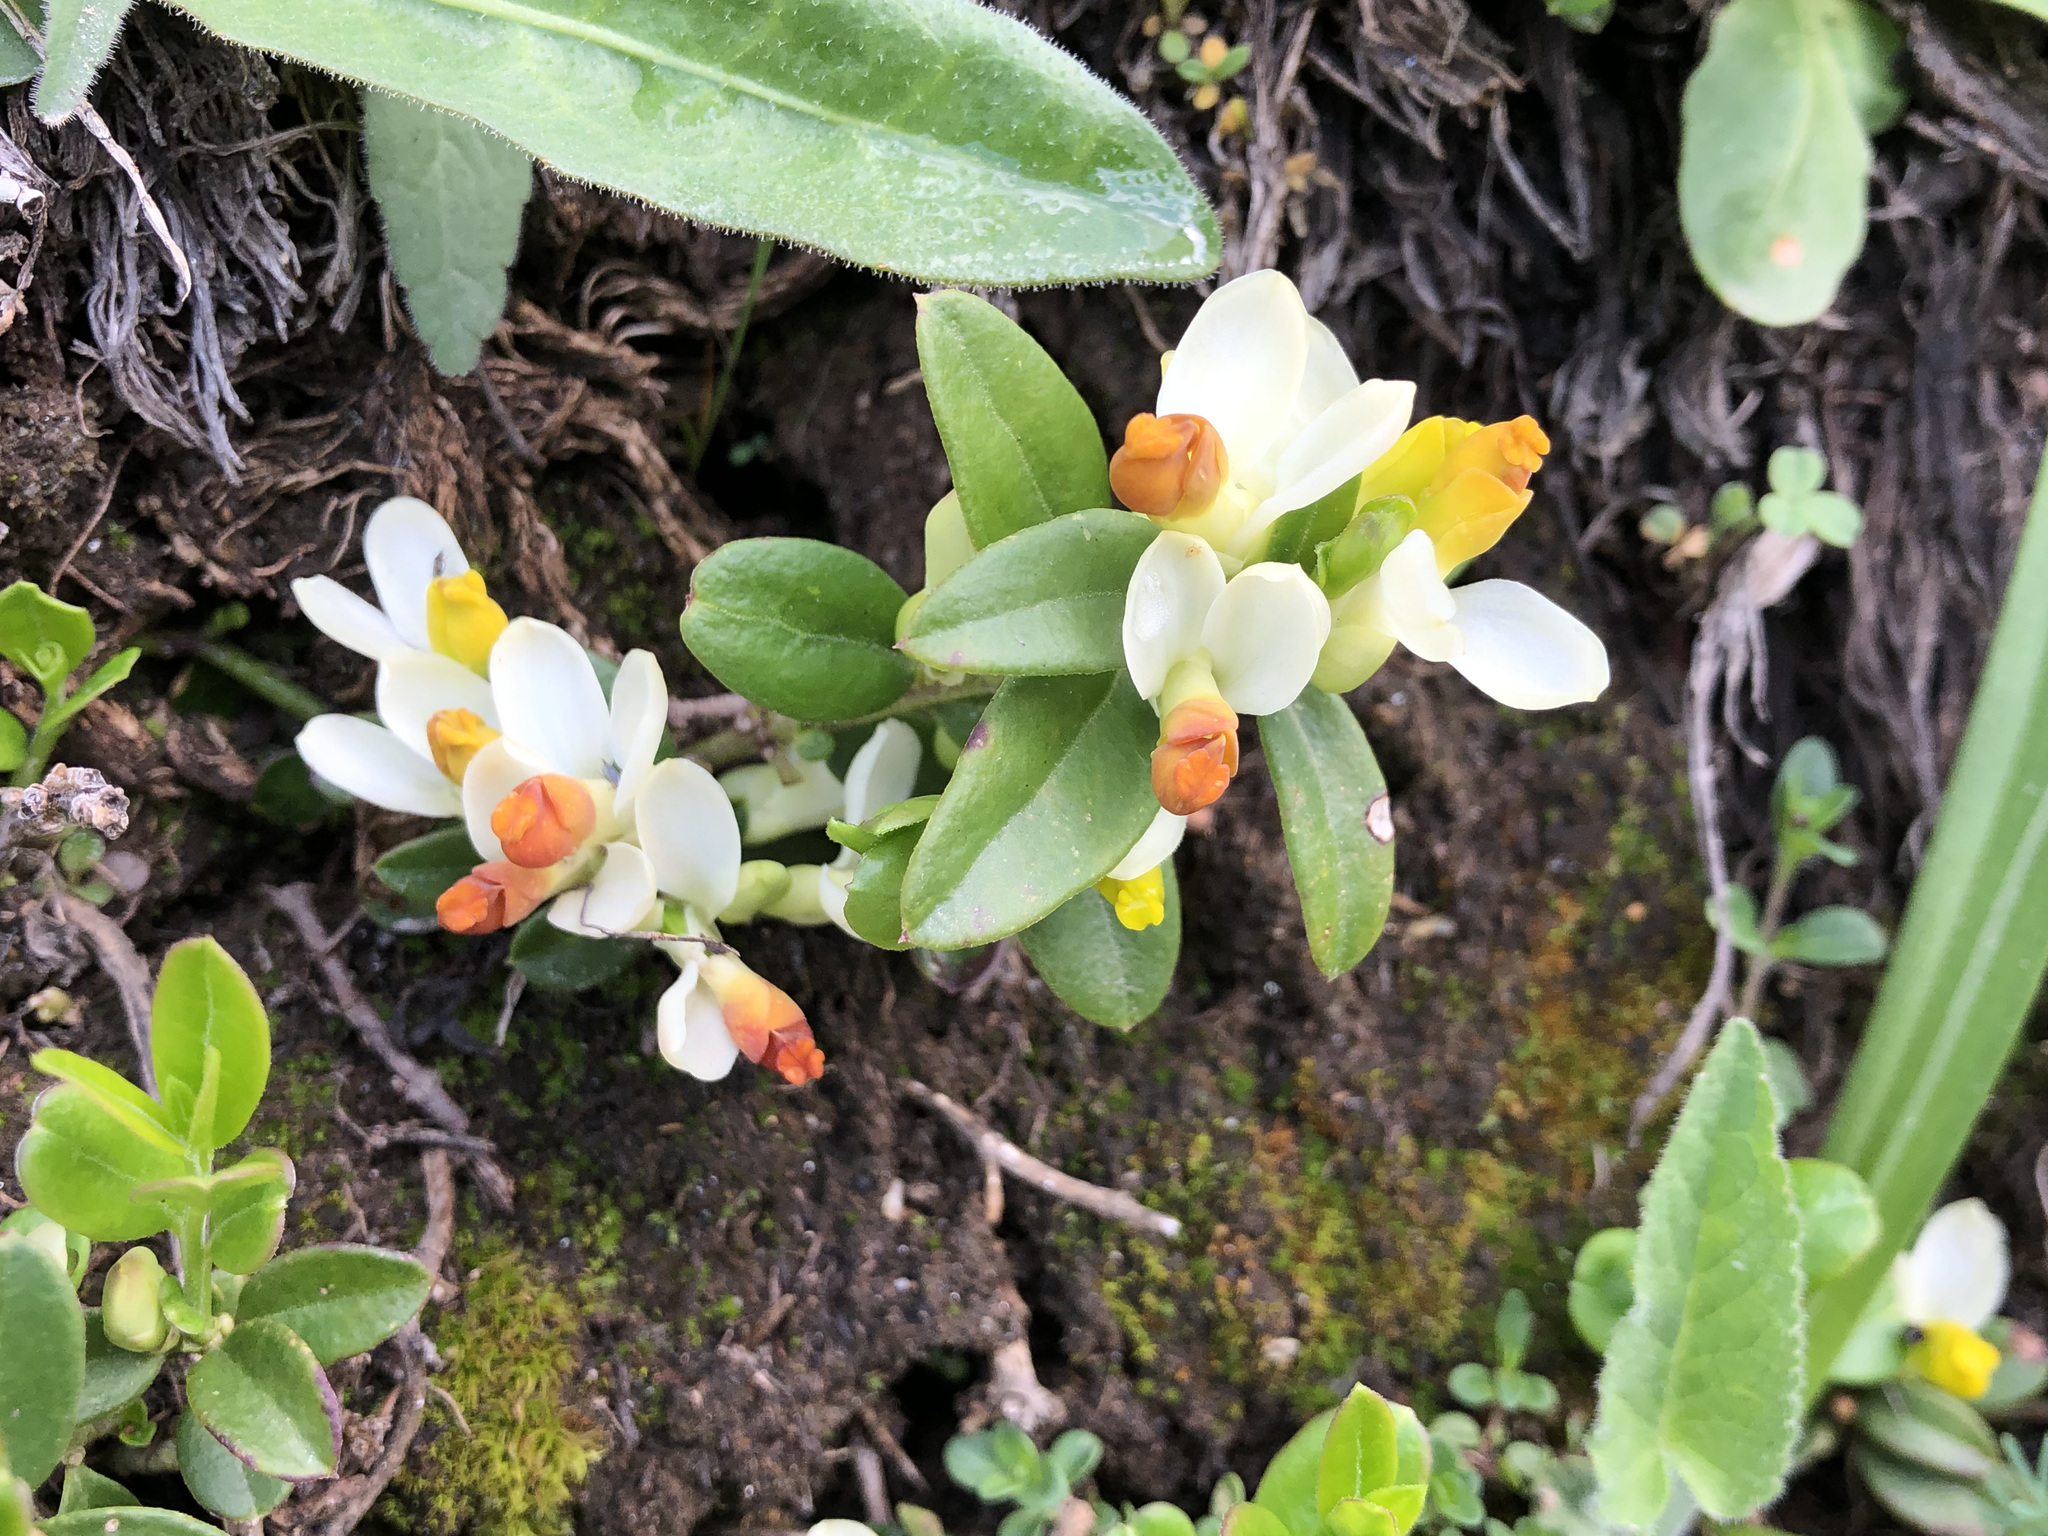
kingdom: Plantae
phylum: Tracheophyta
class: Magnoliopsida
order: Fabales
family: Polygalaceae
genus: Polygaloides
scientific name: Polygaloides chamaebuxus
